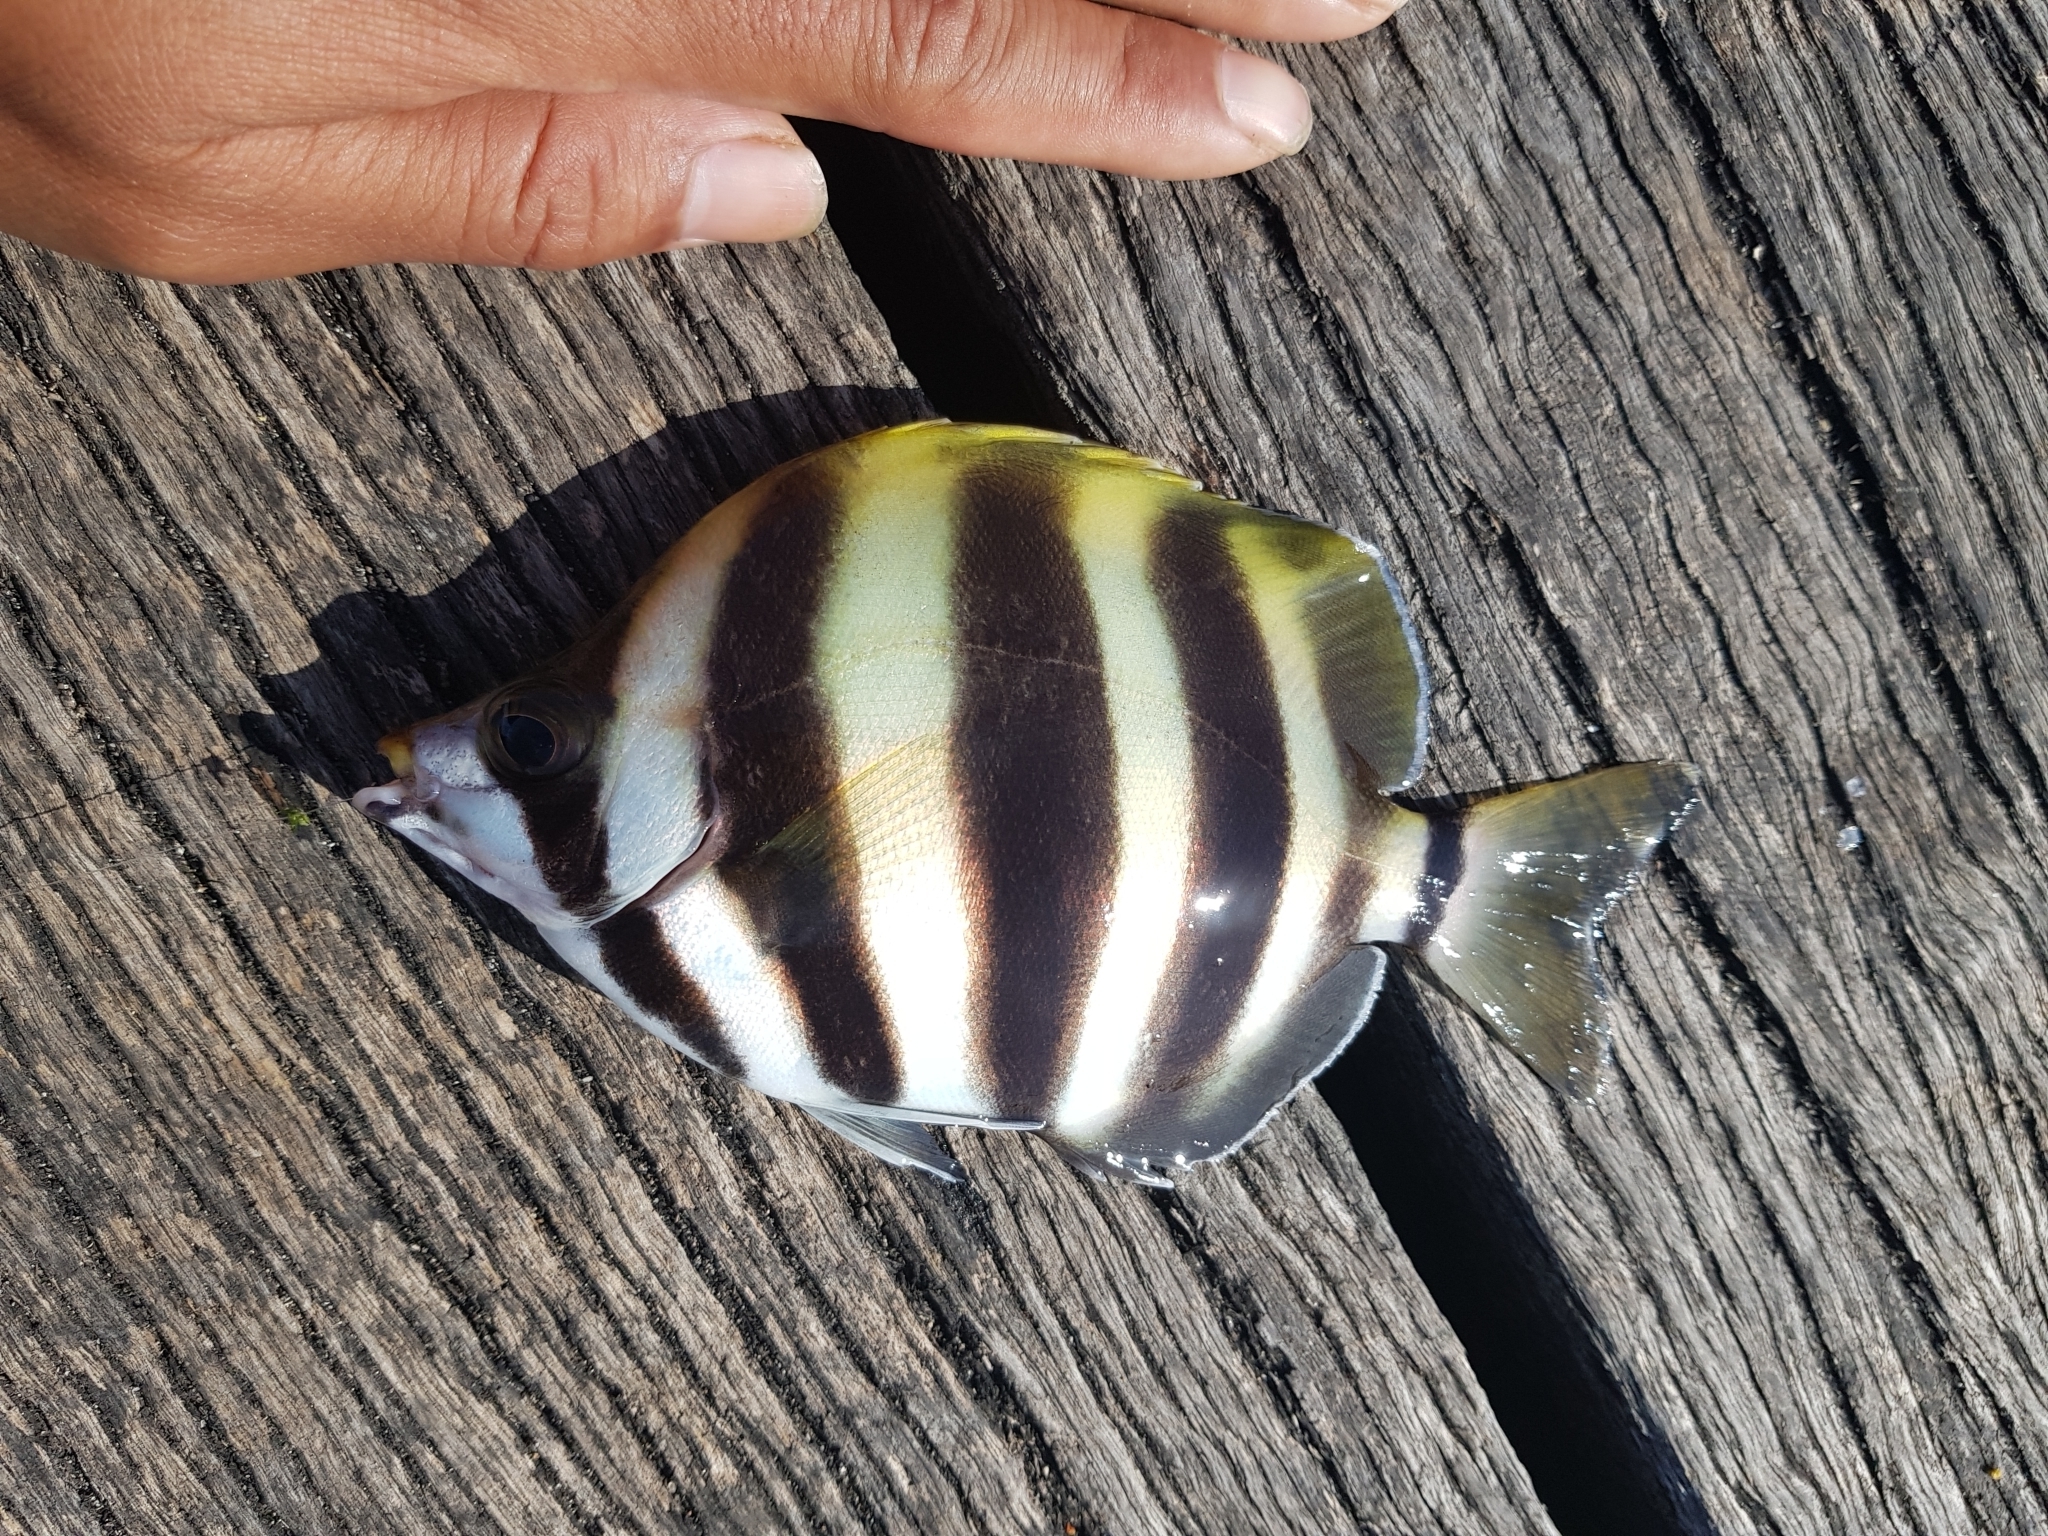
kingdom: Animalia
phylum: Chordata
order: Perciformes
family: Kyphosidae
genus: Tilodon
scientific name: Tilodon sexfasciatus
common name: Moonlighter
